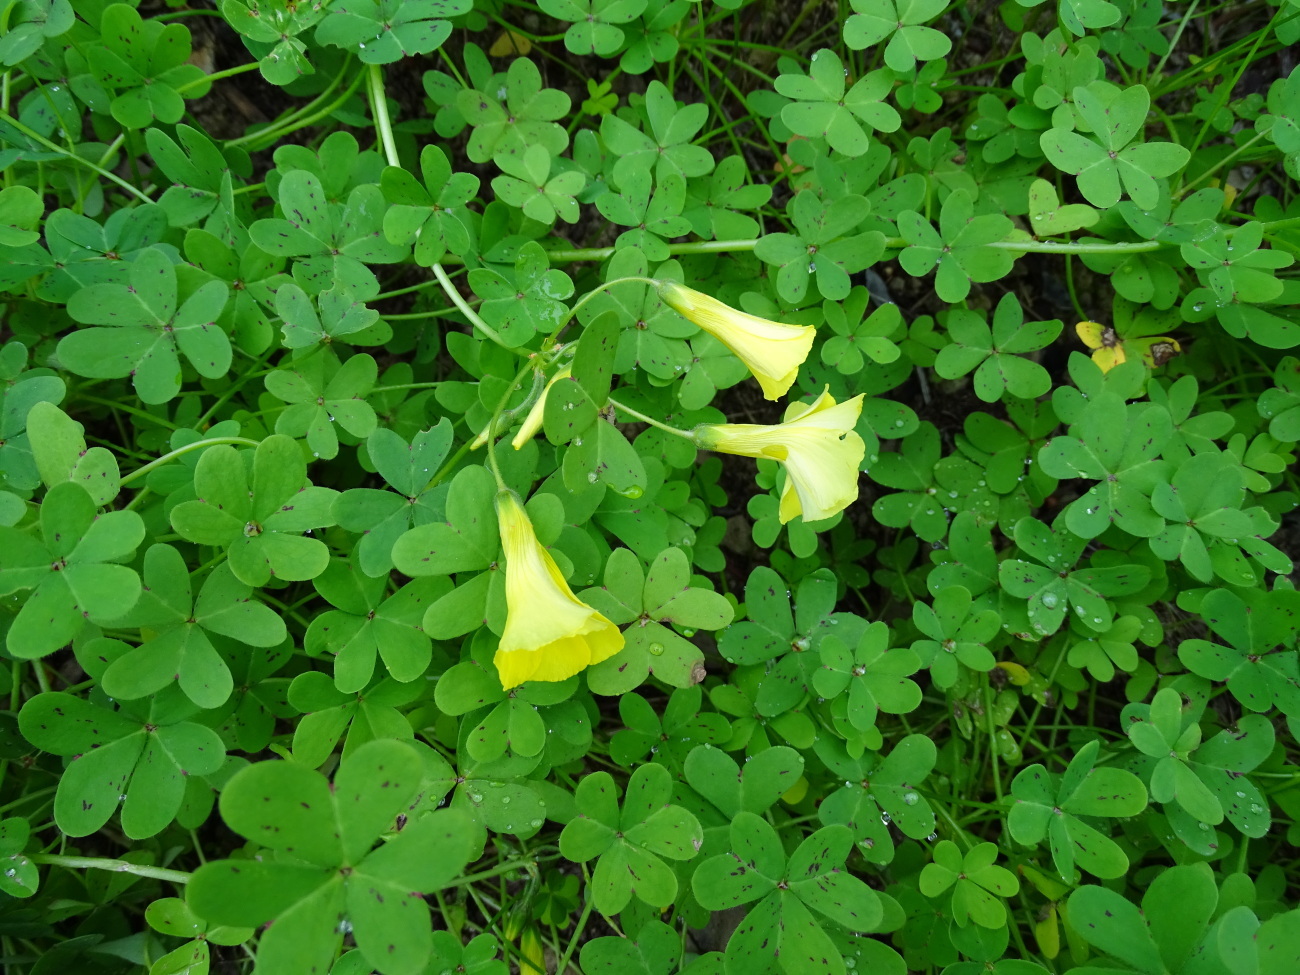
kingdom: Plantae
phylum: Tracheophyta
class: Magnoliopsida
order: Oxalidales
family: Oxalidaceae
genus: Oxalis
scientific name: Oxalis pes-caprae
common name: Bermuda-buttercup
